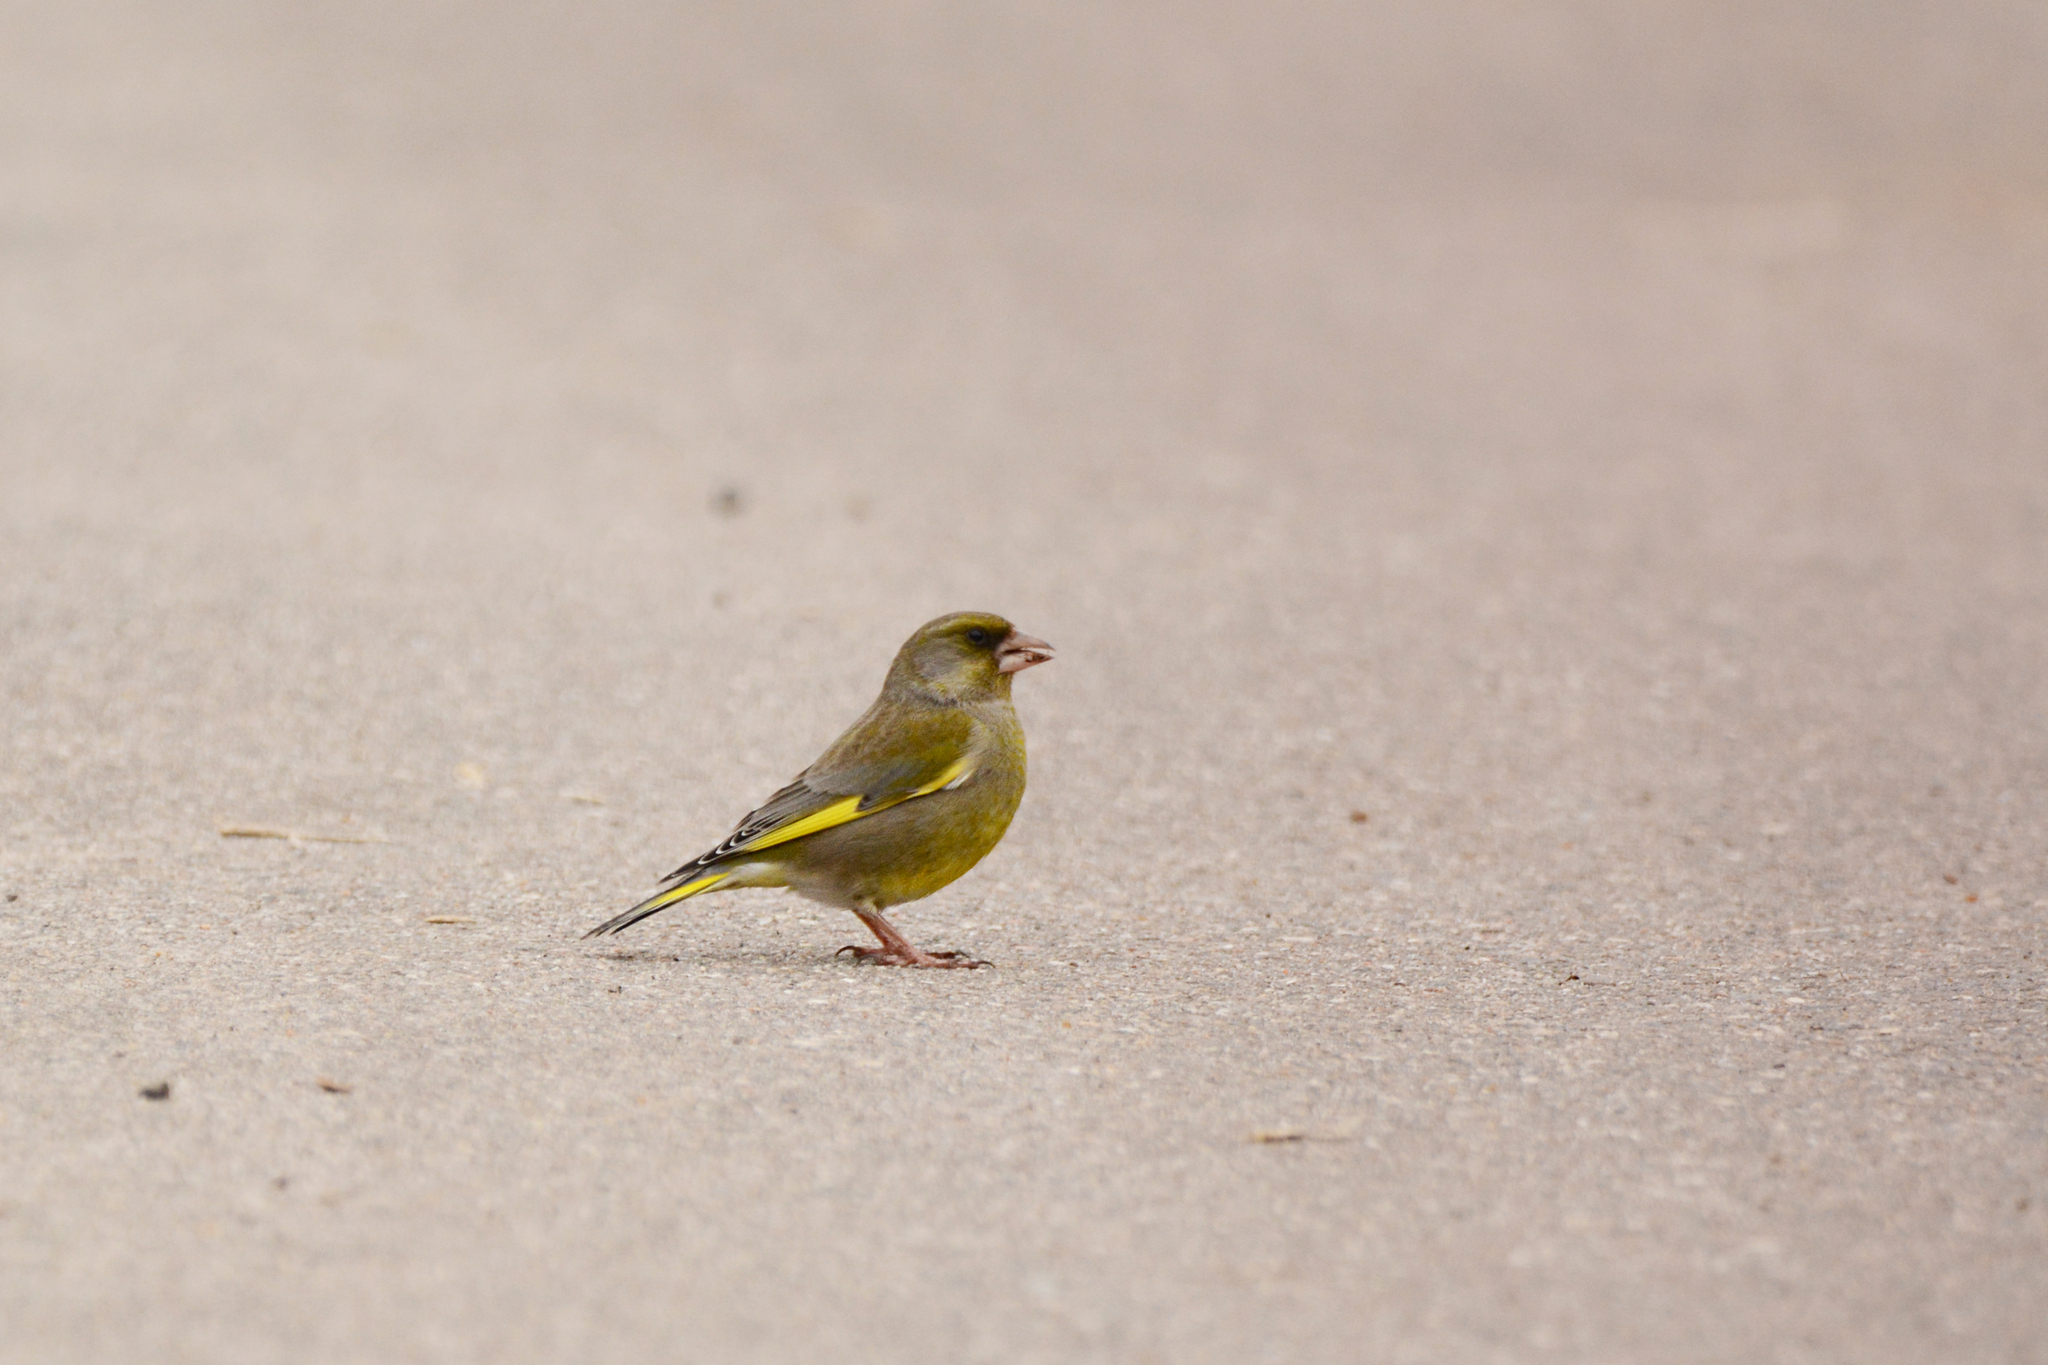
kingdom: Plantae
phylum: Tracheophyta
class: Liliopsida
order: Poales
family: Poaceae
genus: Chloris
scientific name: Chloris chloris
